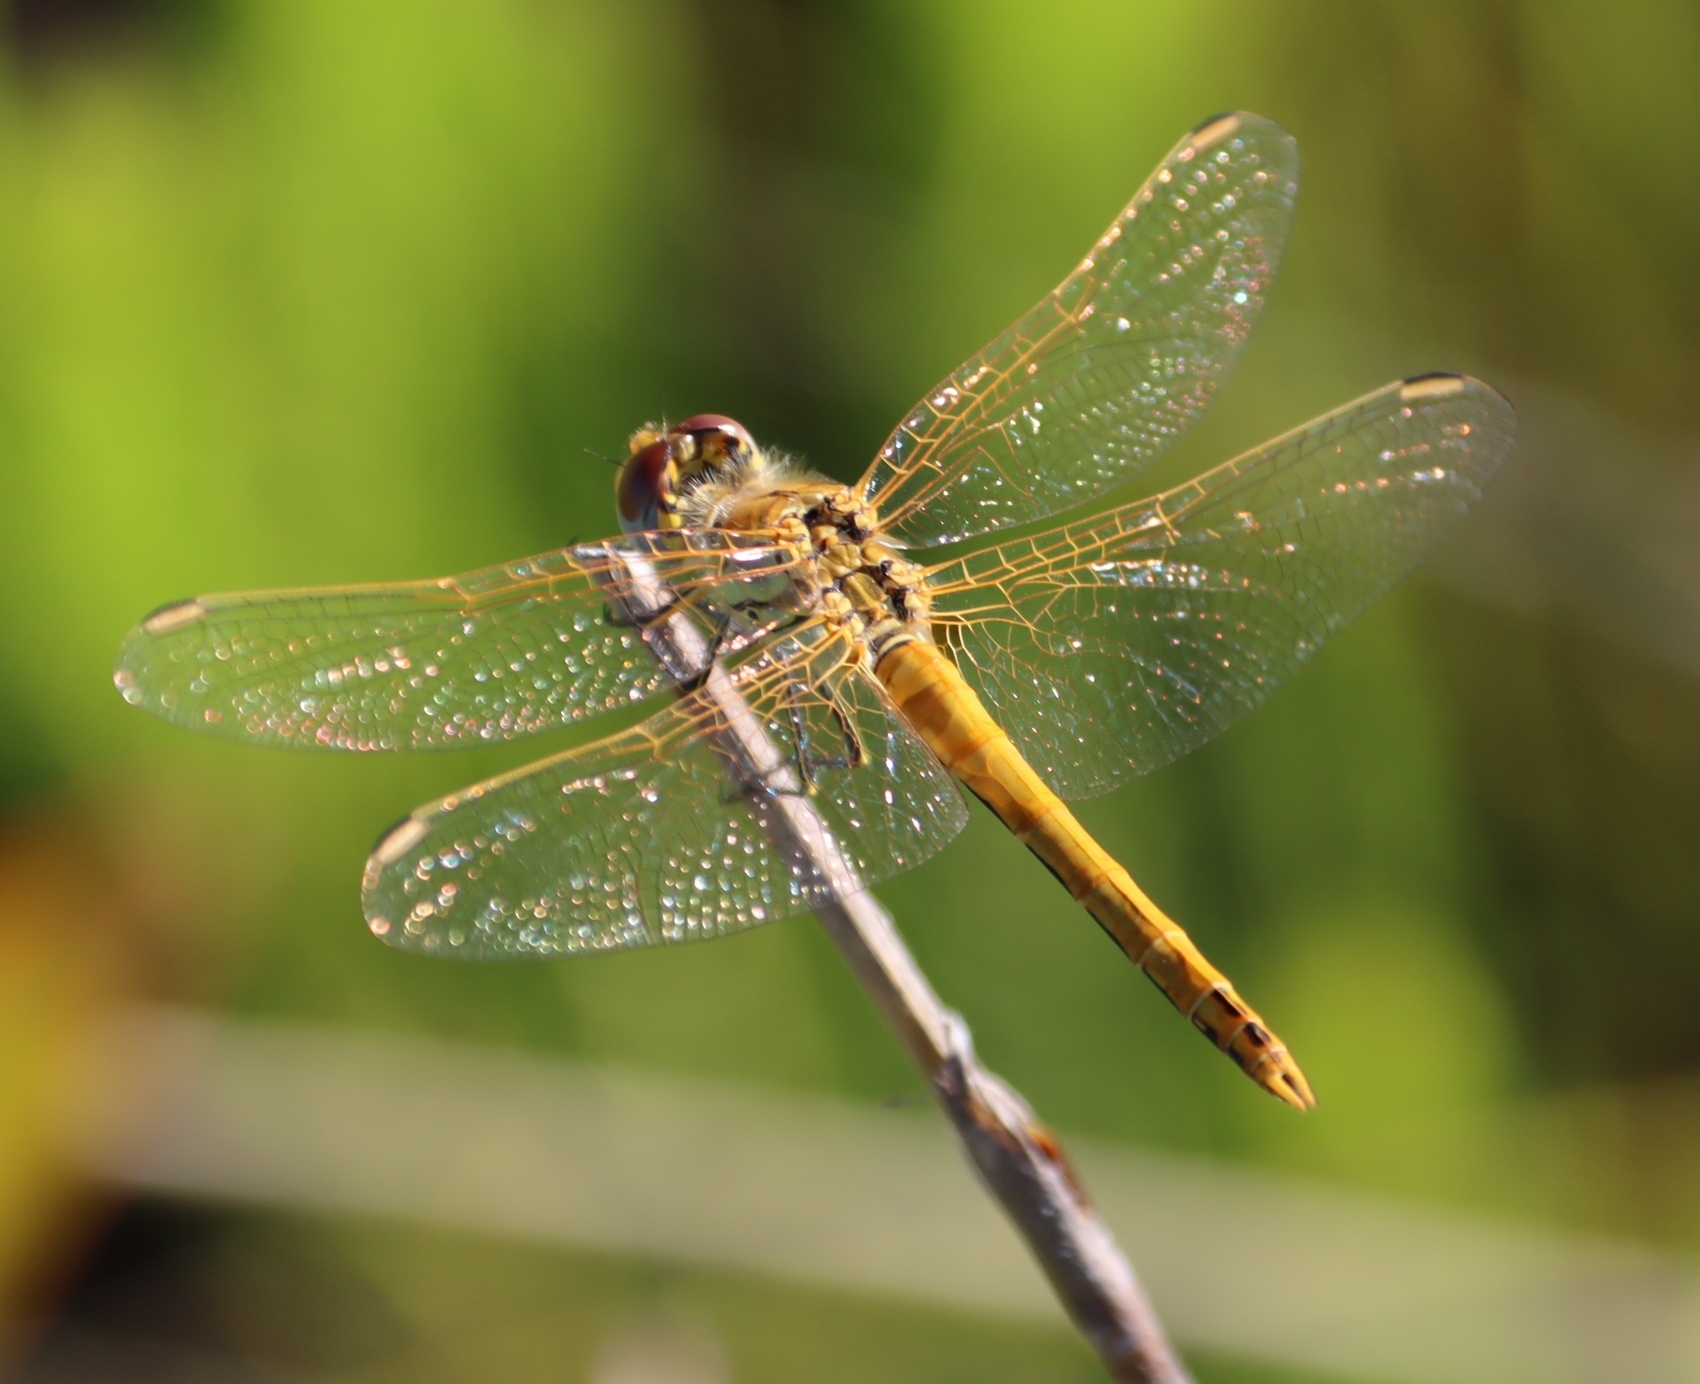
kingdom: Animalia
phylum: Arthropoda
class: Insecta
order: Odonata
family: Libellulidae
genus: Sympetrum
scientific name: Sympetrum fonscolombii
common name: Red-veined darter
